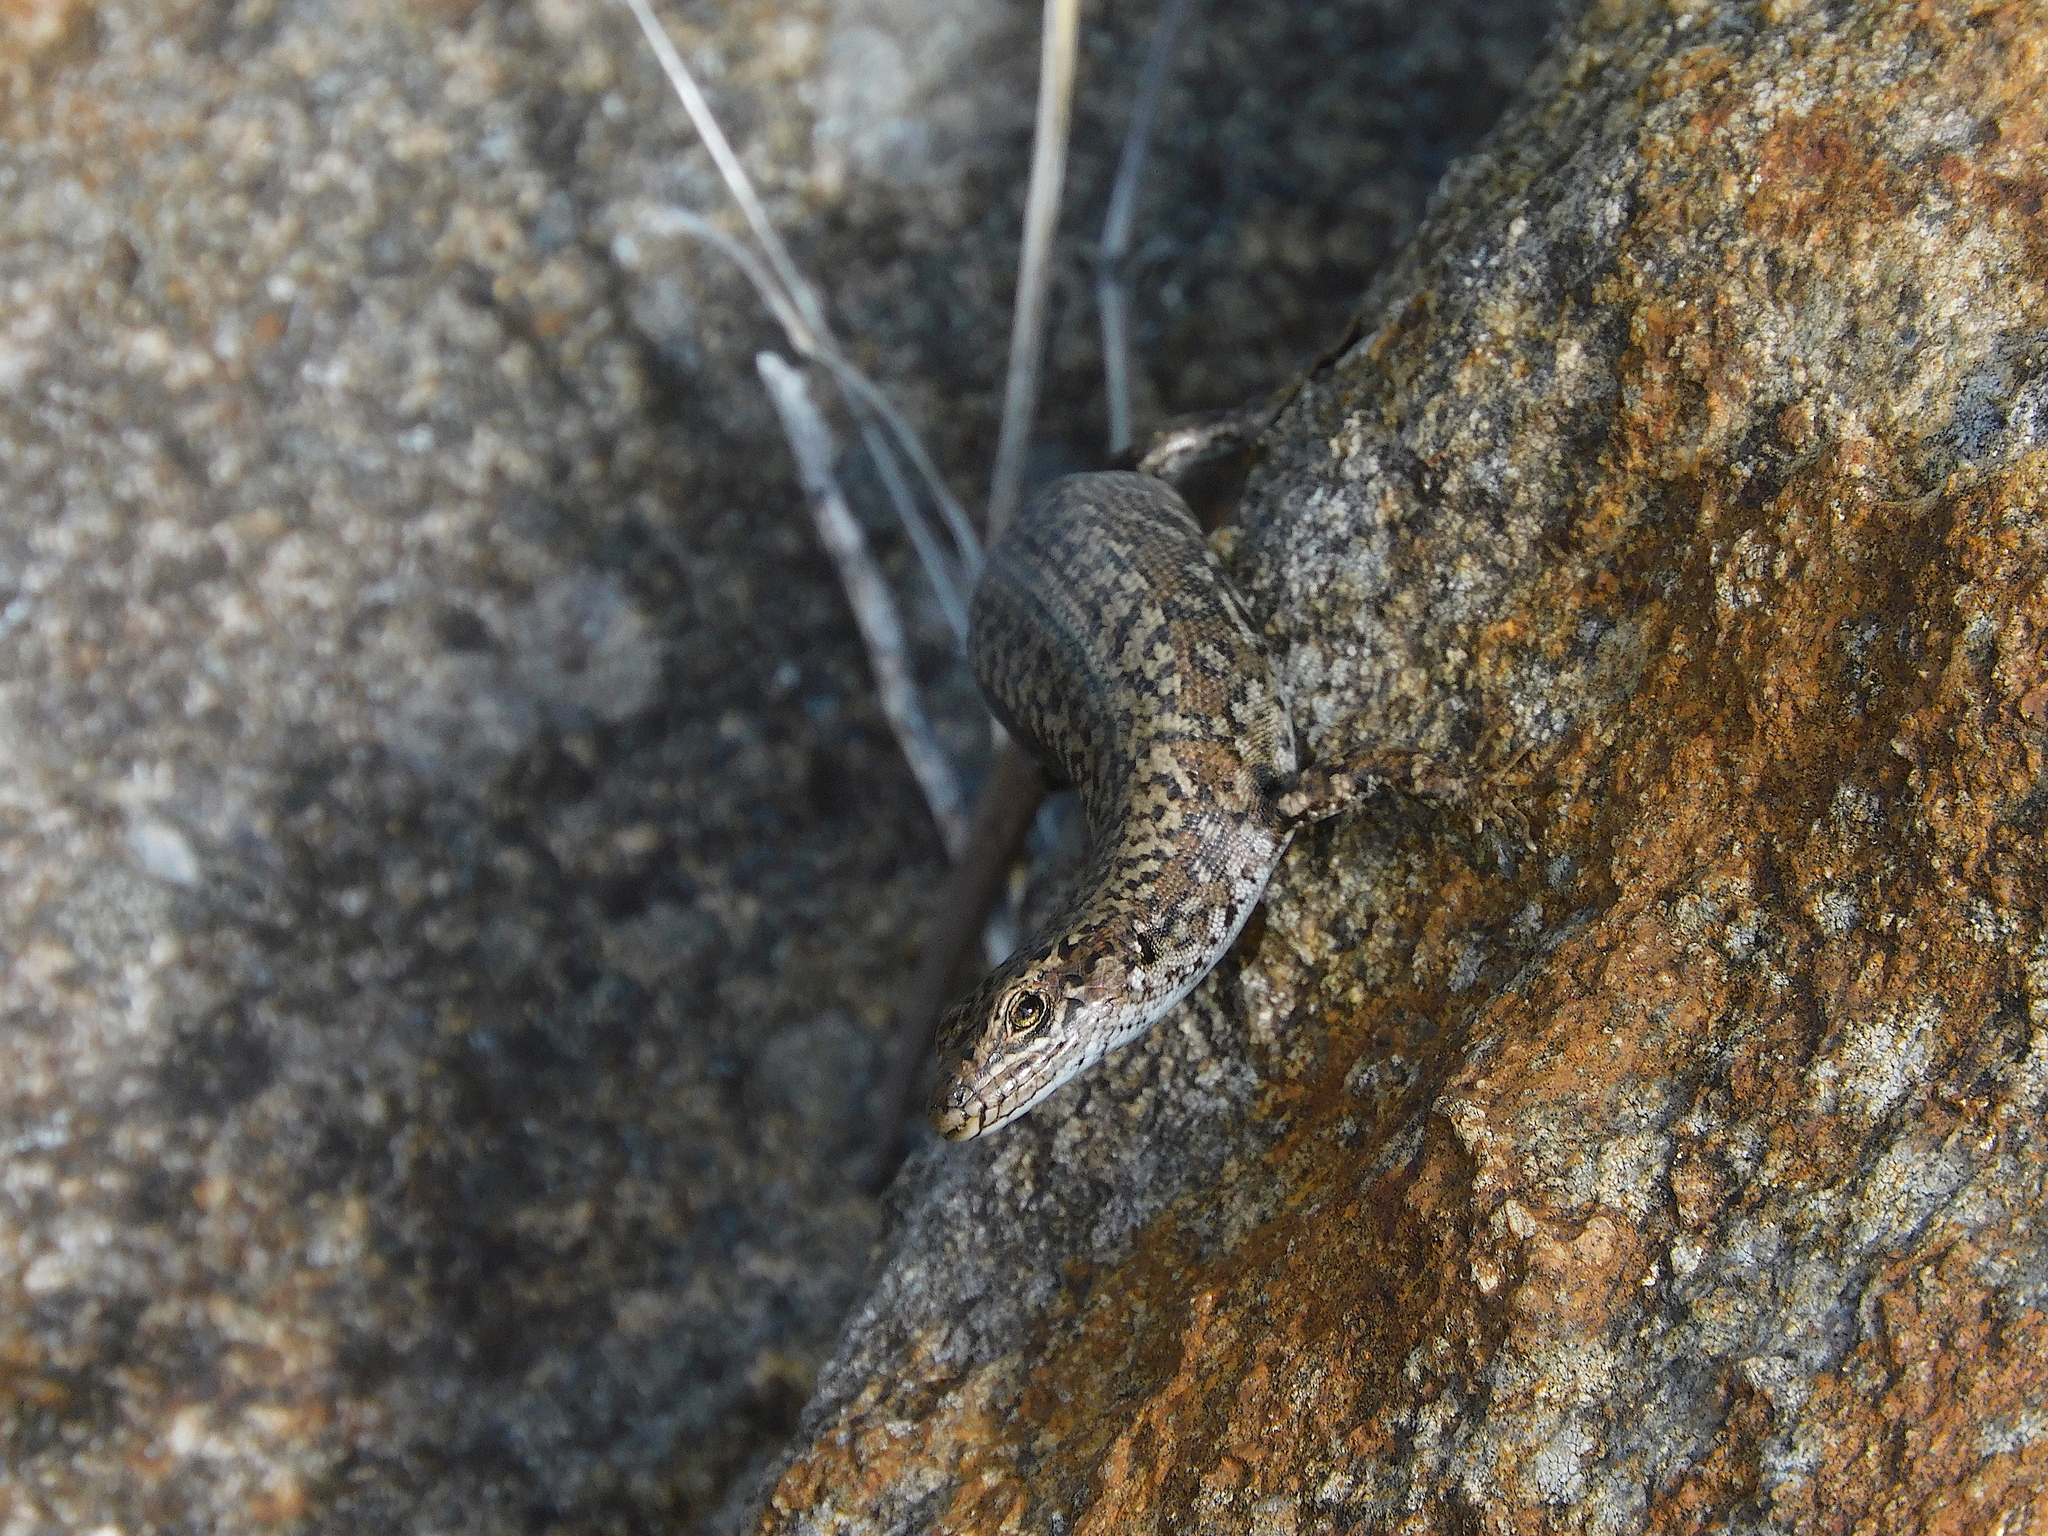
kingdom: Animalia
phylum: Chordata
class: Squamata
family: Scincidae
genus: Carinascincus
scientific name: Carinascincus ocellatus
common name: Ocellated cool-skink
